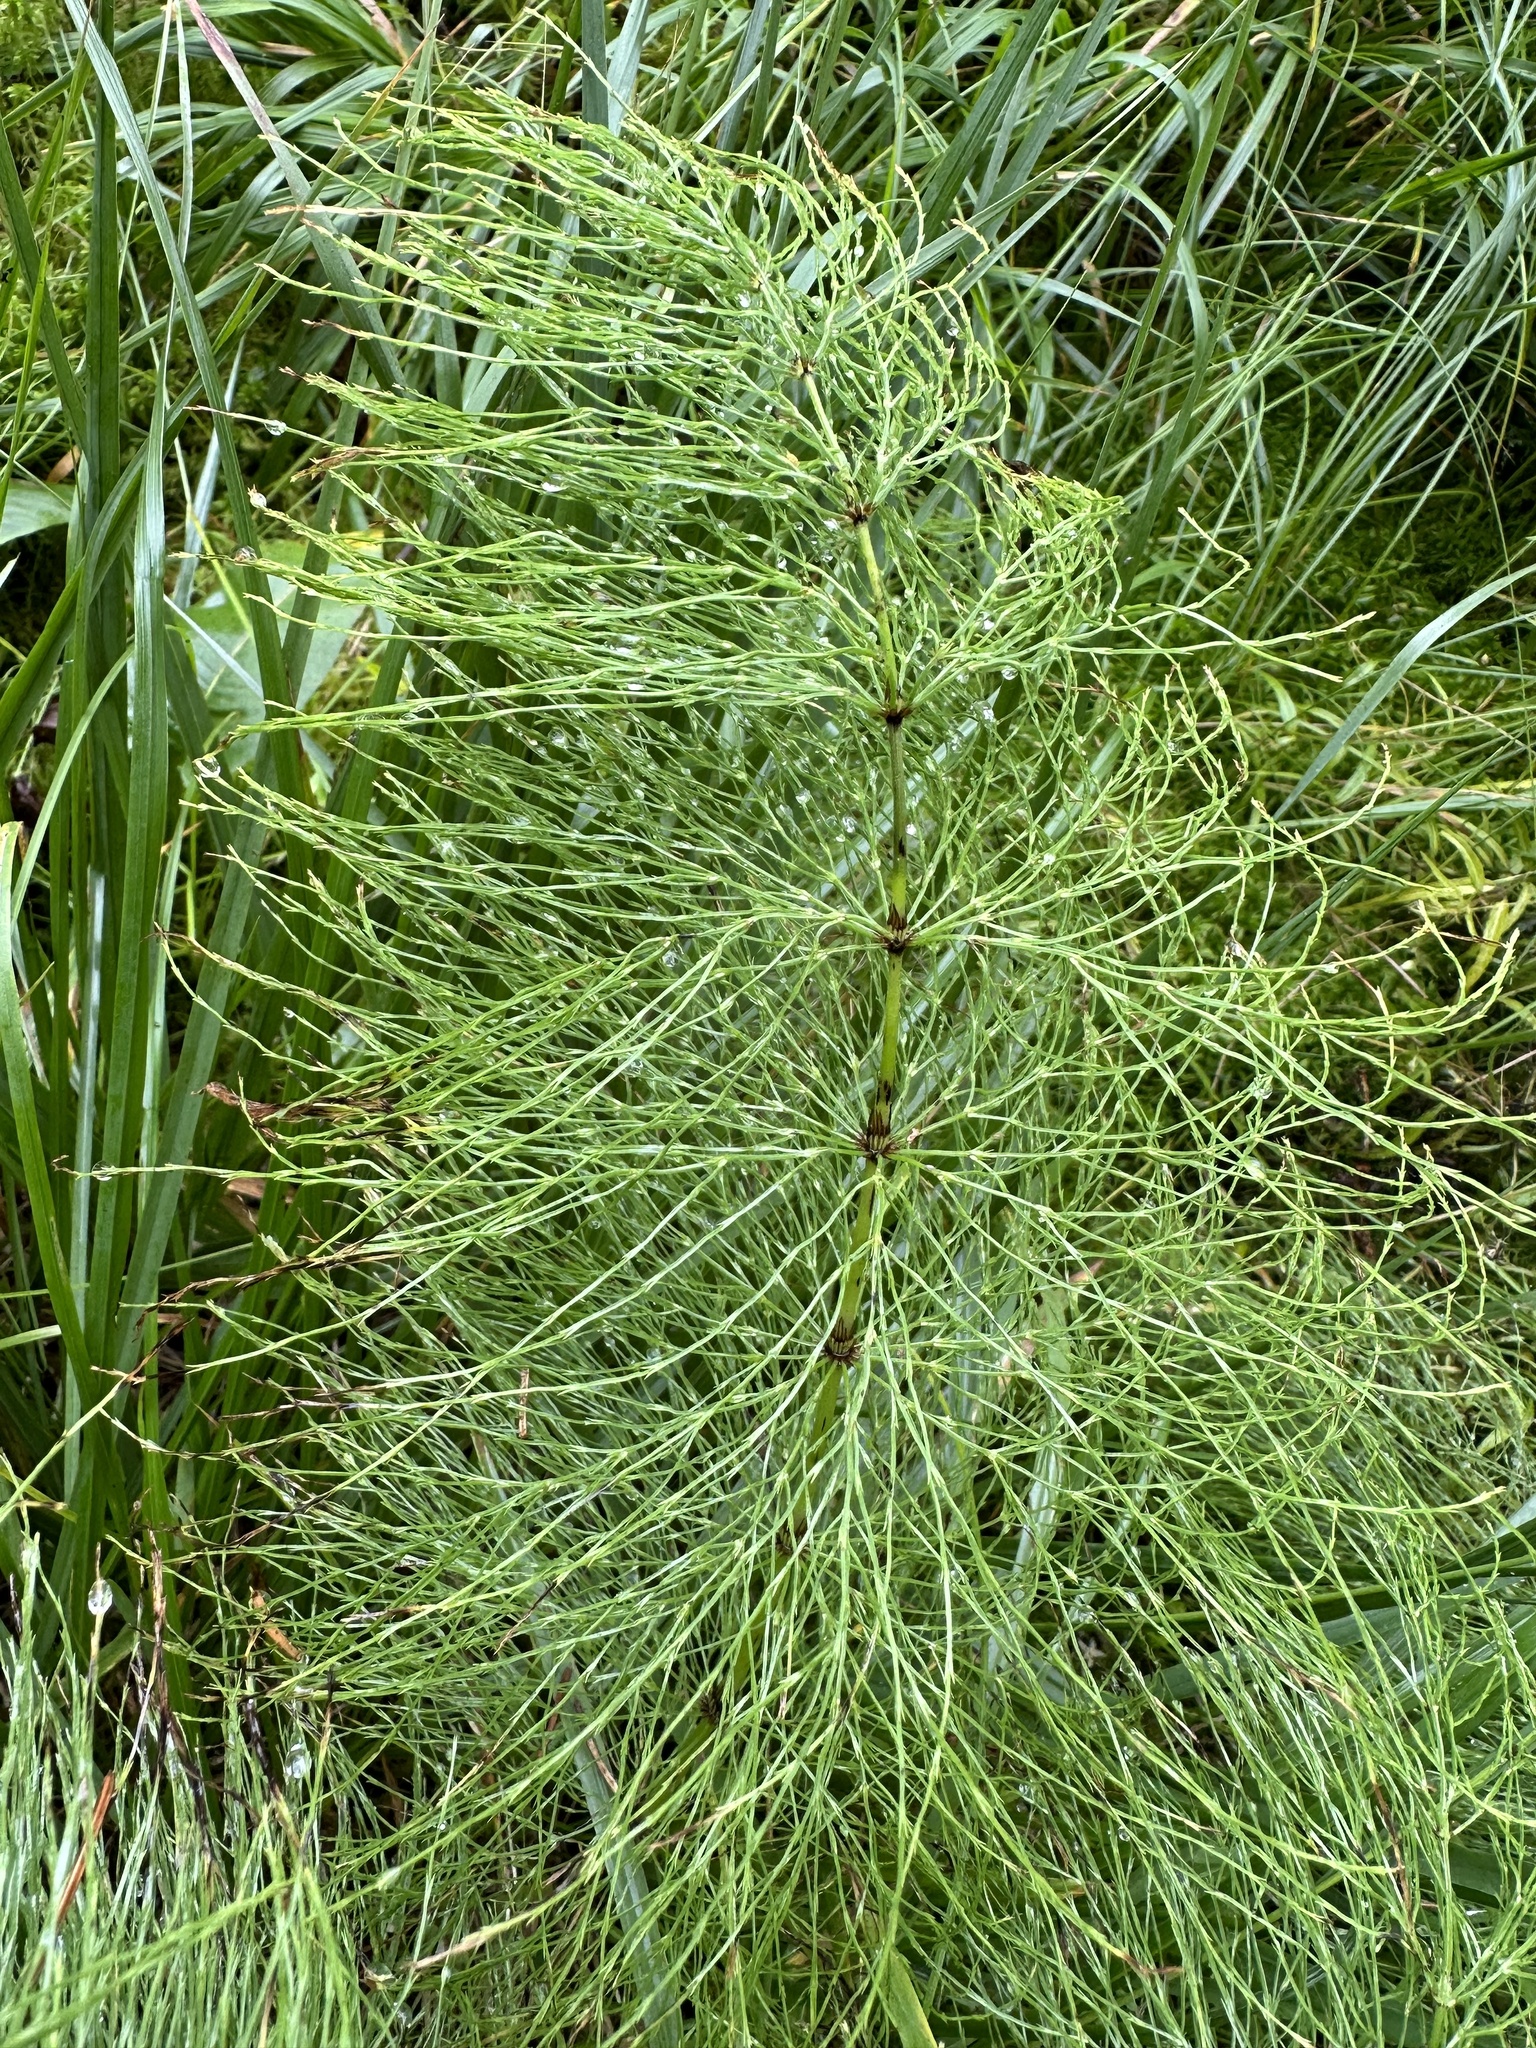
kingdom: Plantae
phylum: Tracheophyta
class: Polypodiopsida
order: Equisetales
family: Equisetaceae
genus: Equisetum
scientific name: Equisetum sylvaticum
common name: Wood horsetail
